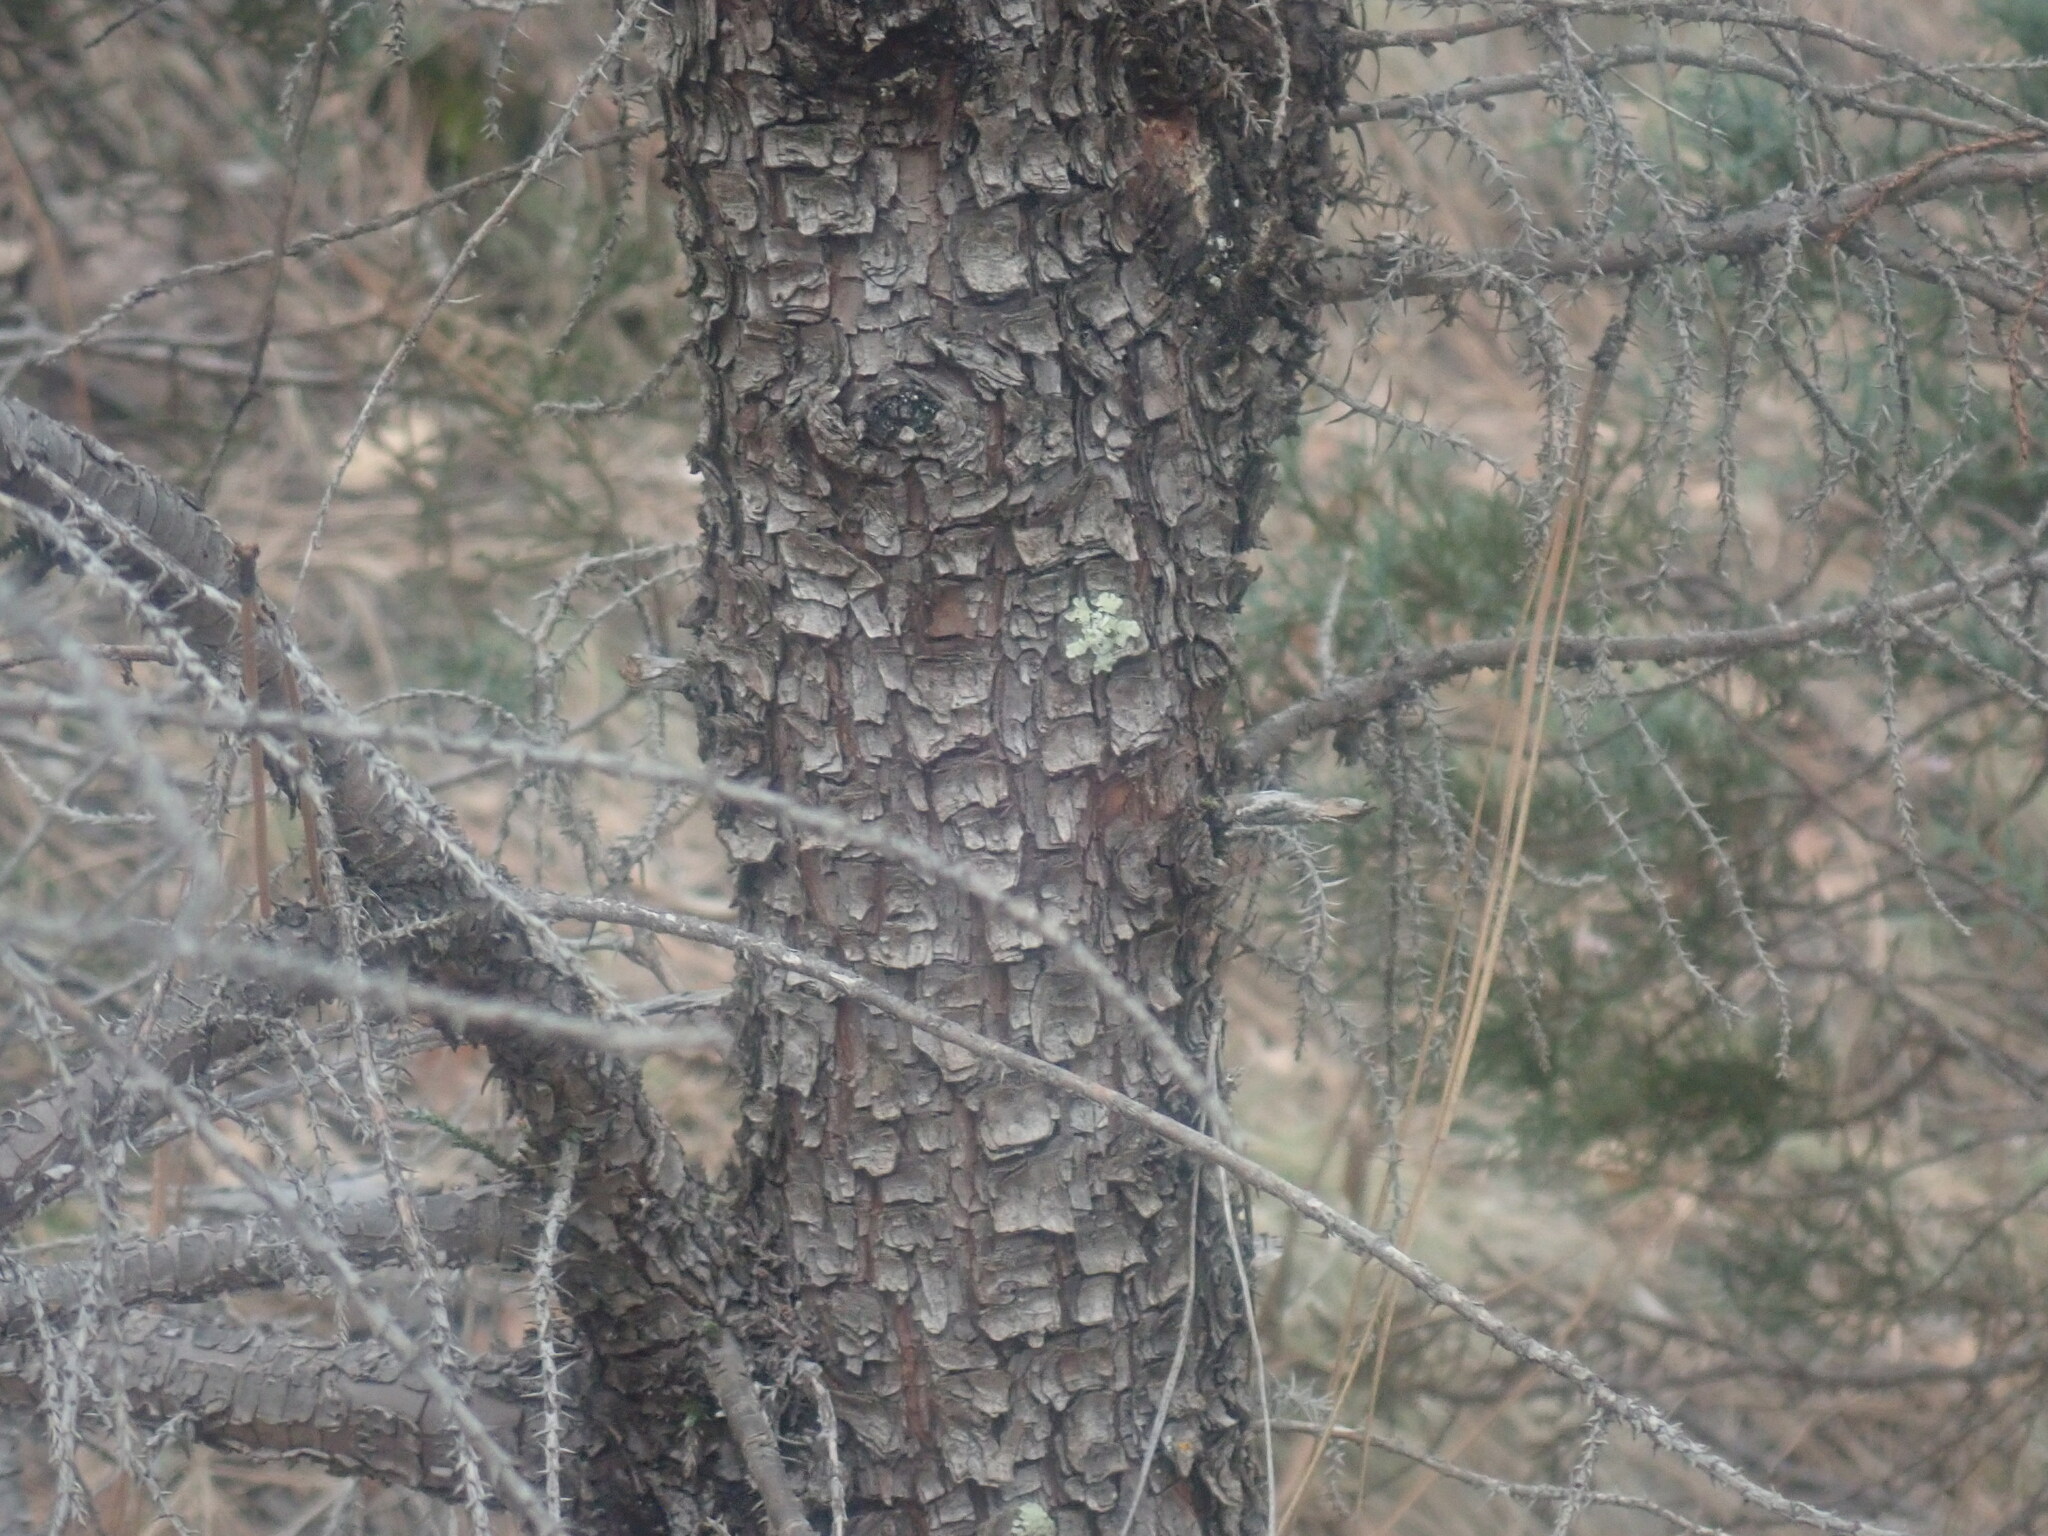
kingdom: Plantae
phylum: Tracheophyta
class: Pinopsida
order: Pinales
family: Cupressaceae
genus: Juniperus
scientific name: Juniperus deppeana
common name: Alligator juniper
